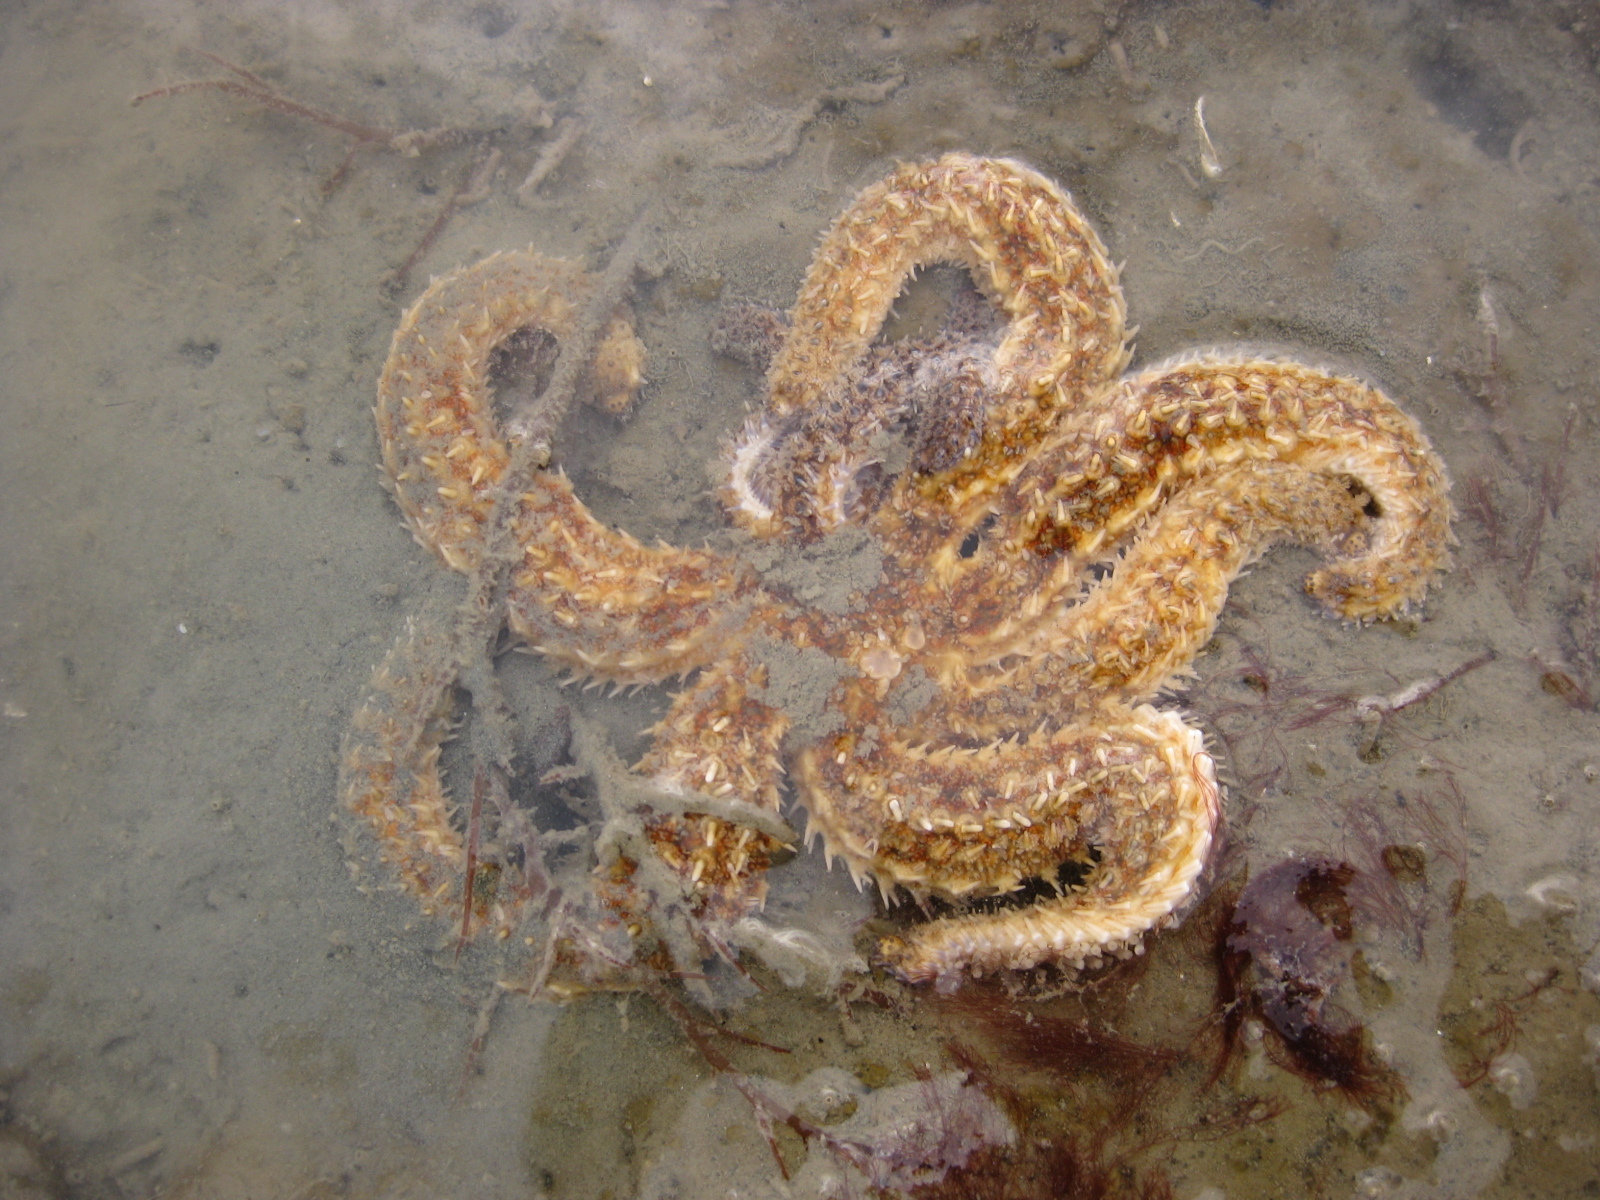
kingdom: Animalia
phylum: Echinodermata
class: Asteroidea
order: Forcipulatida
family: Asteriidae
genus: Coscinasterias
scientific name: Coscinasterias muricata
